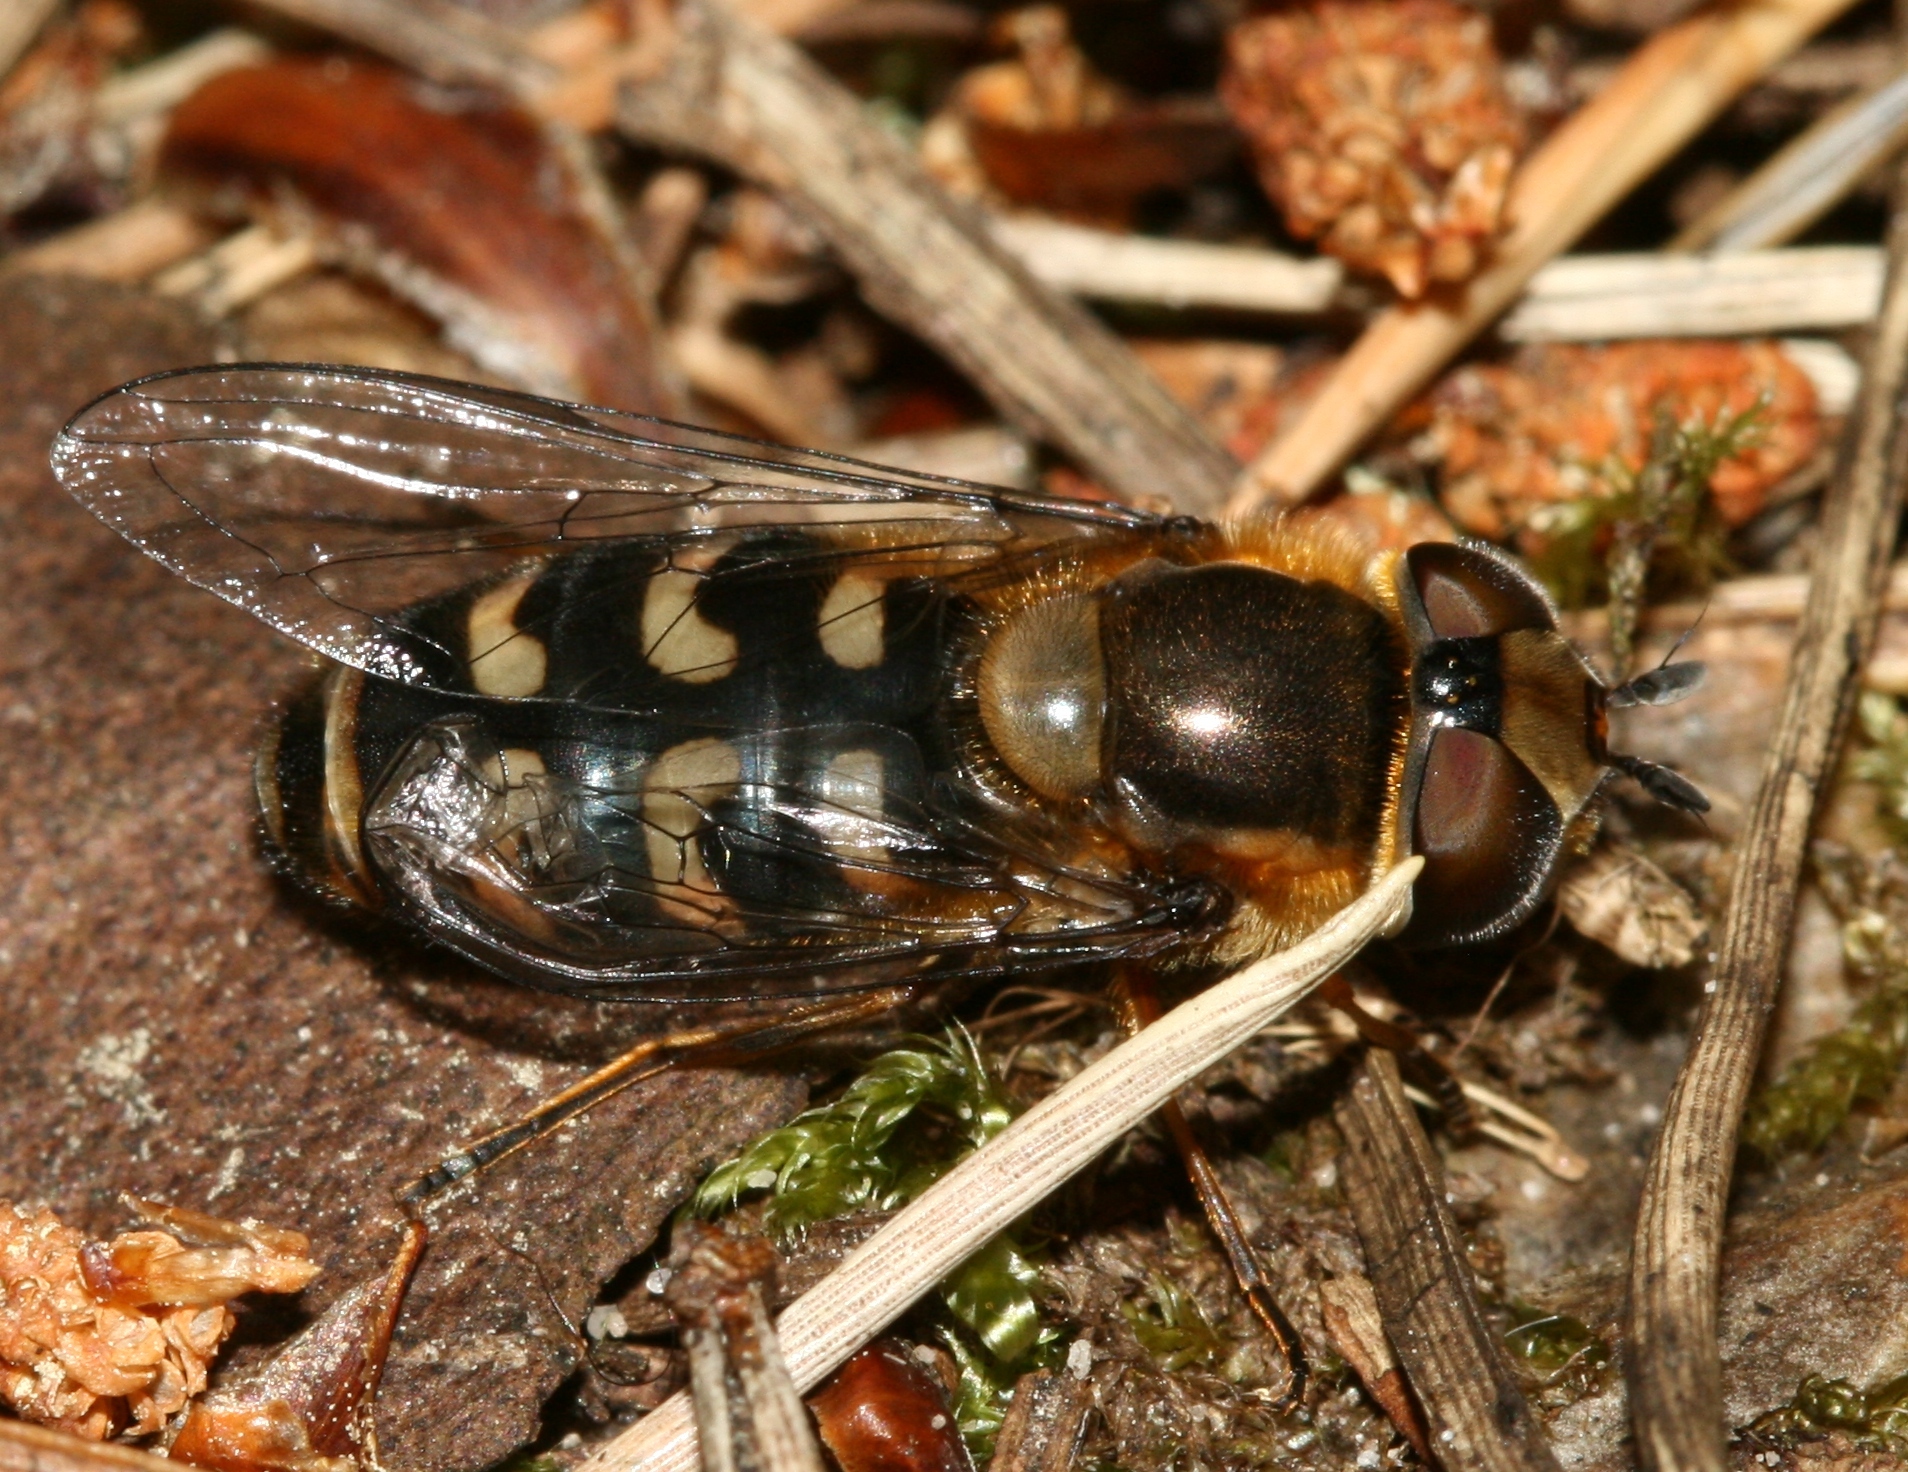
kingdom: Animalia
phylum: Arthropoda
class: Insecta
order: Diptera
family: Syrphidae
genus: Scaeva
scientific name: Scaeva selenitica
